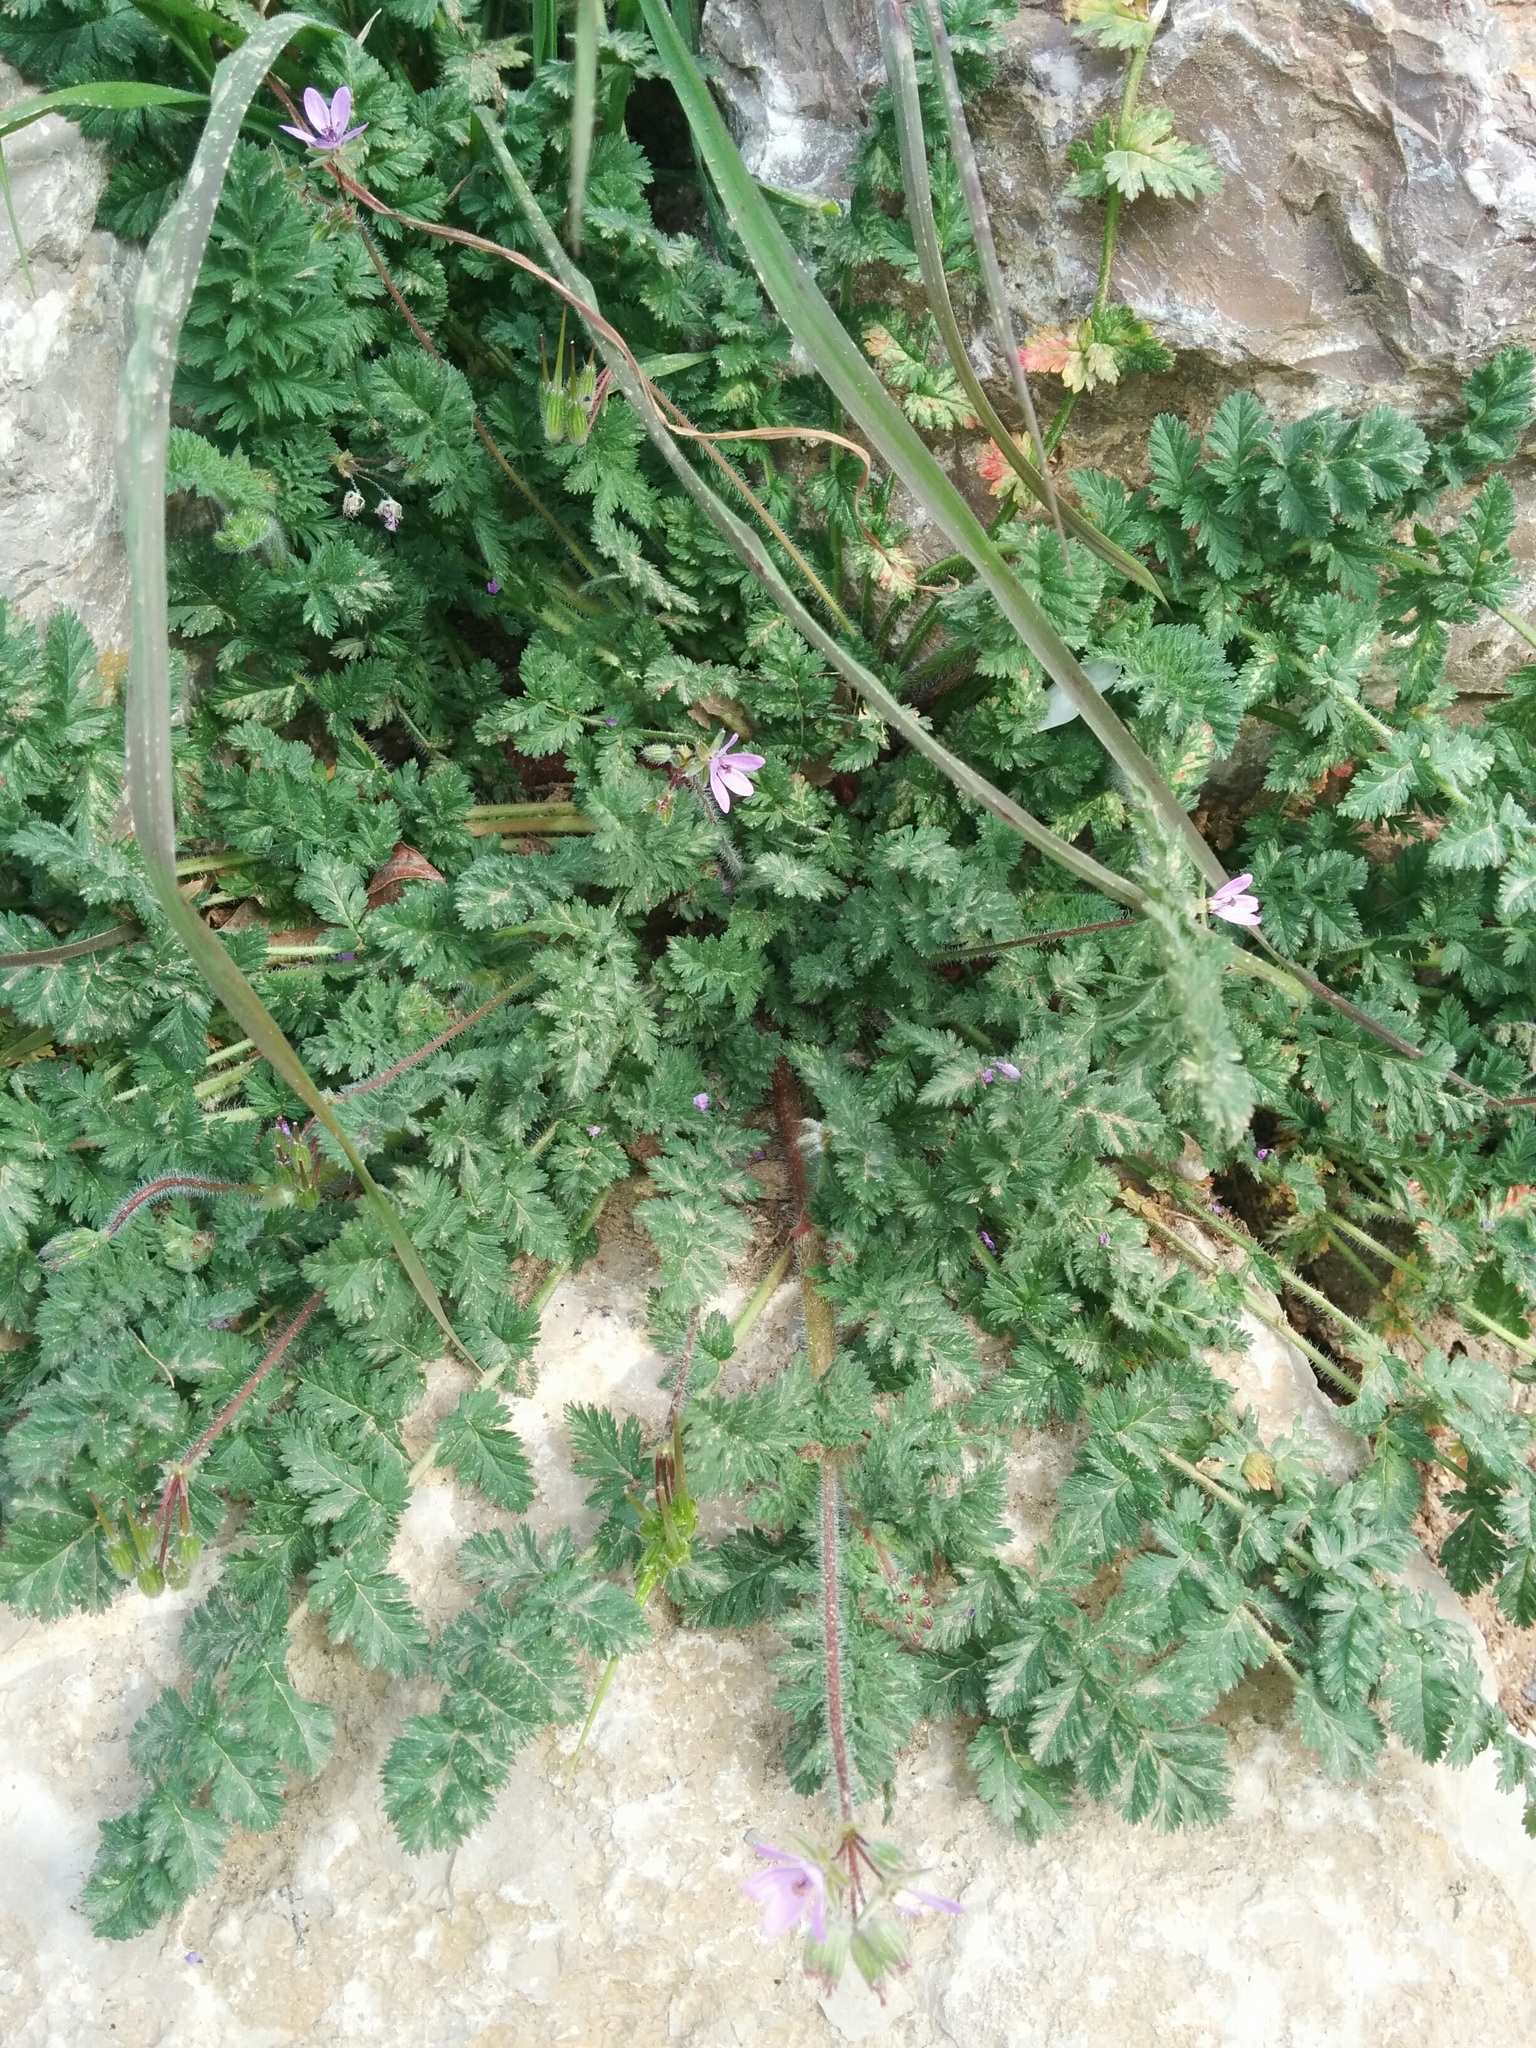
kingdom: Plantae
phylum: Tracheophyta
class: Magnoliopsida
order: Geraniales
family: Geraniaceae
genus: Erodium
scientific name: Erodium cicutarium
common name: Common stork's-bill
